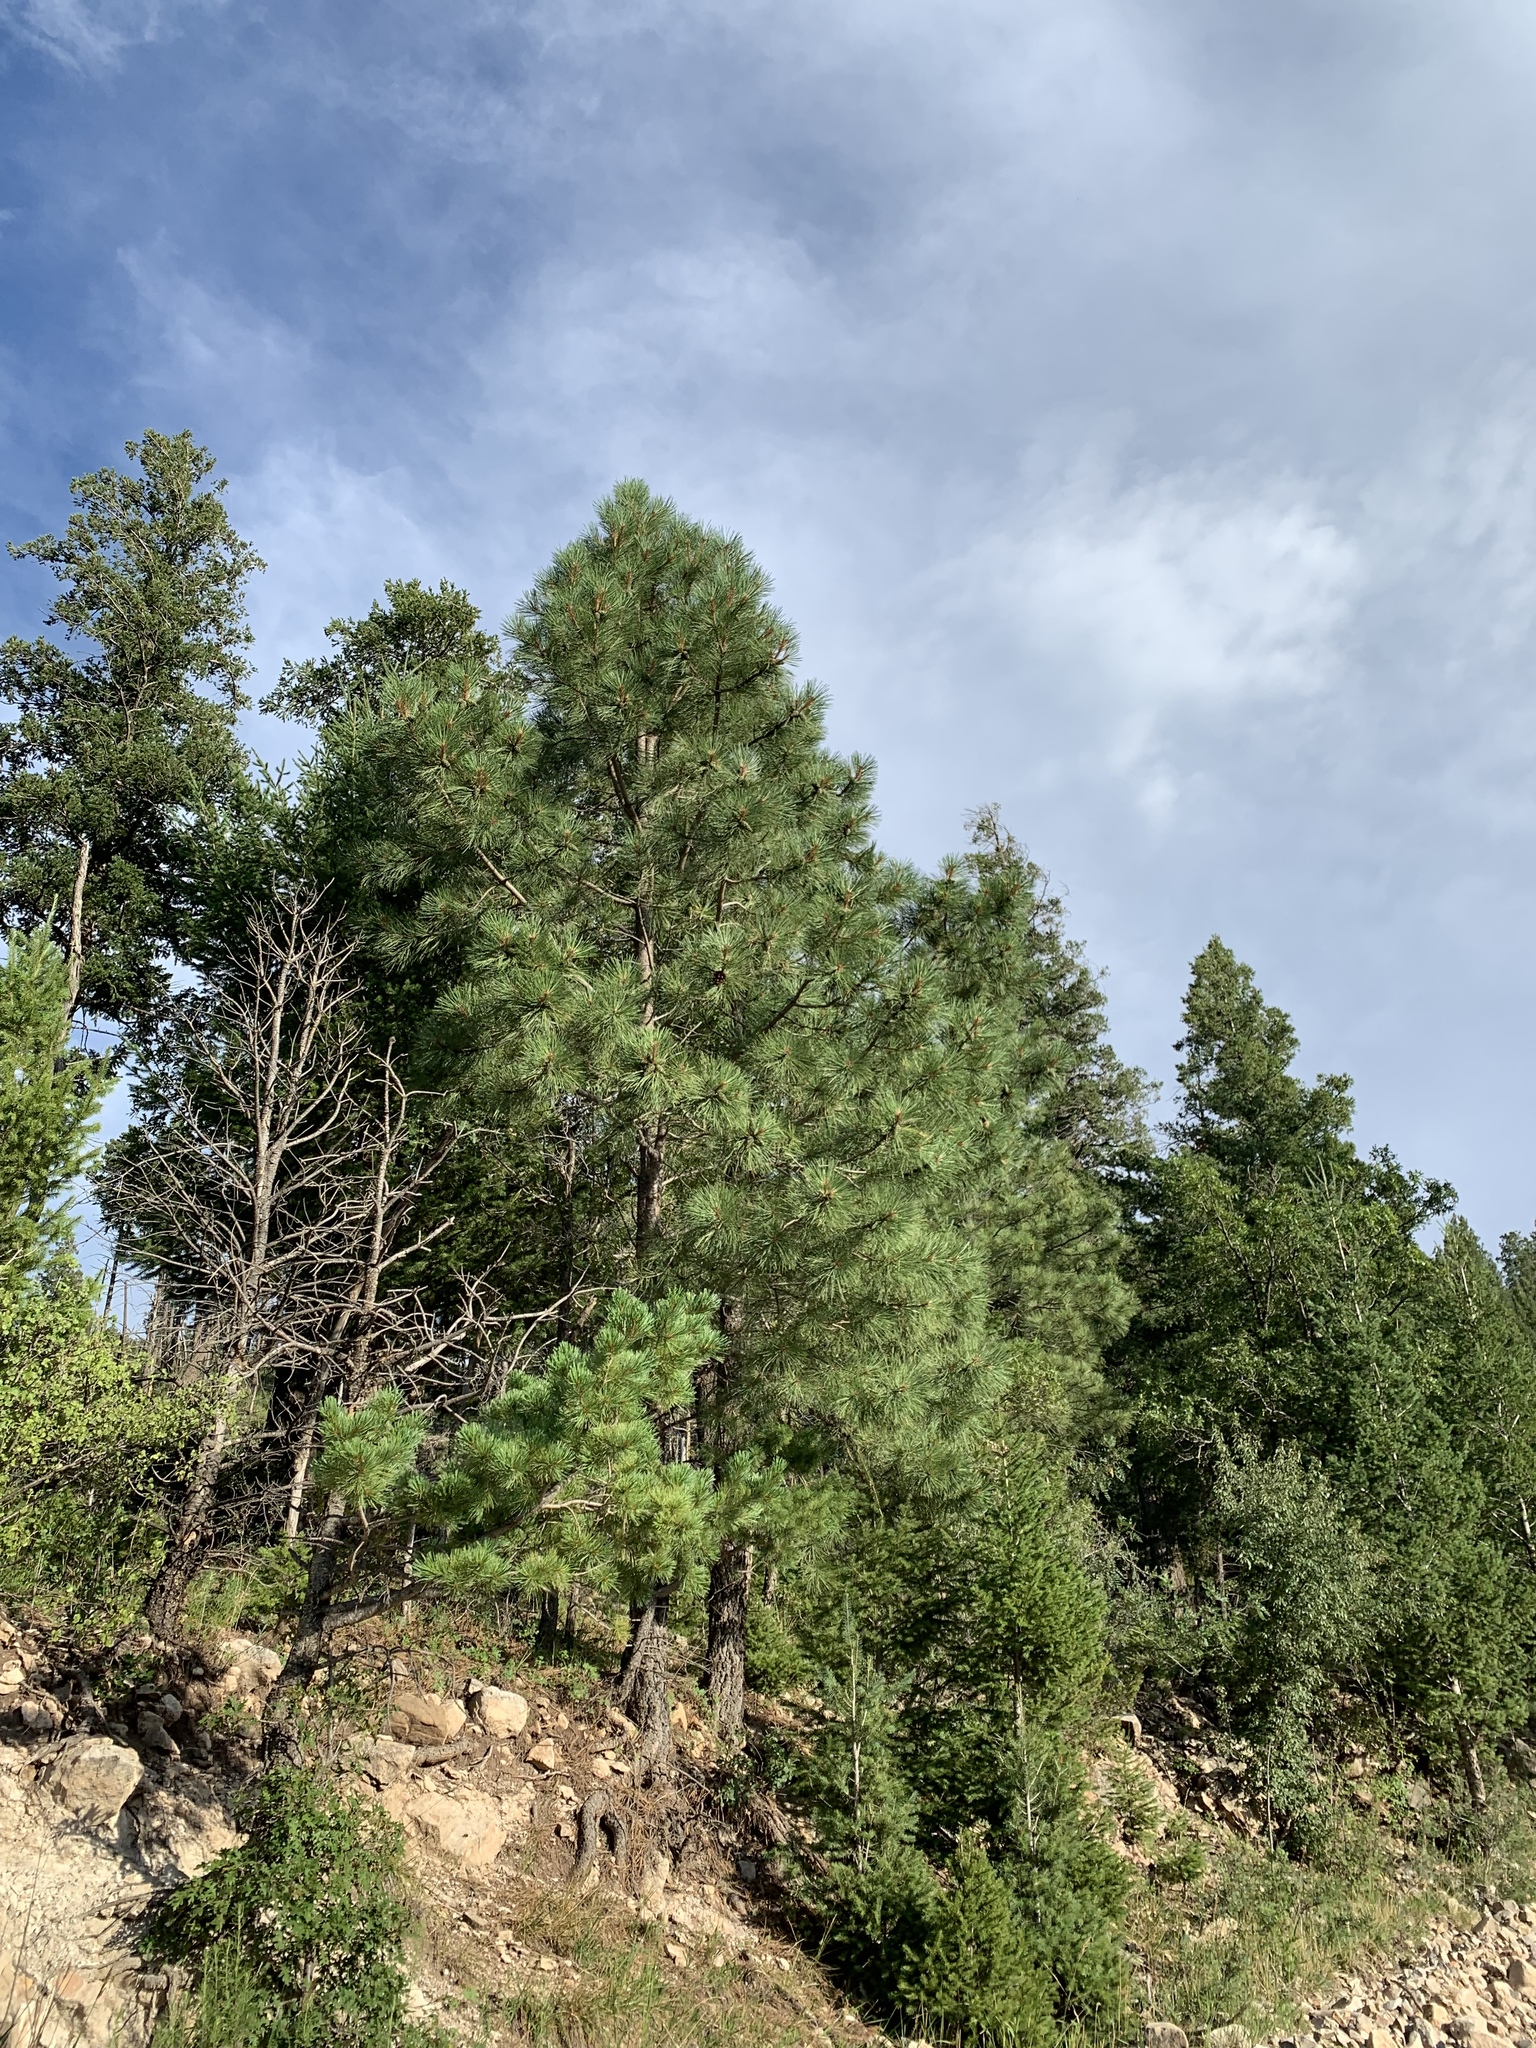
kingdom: Plantae
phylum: Tracheophyta
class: Pinopsida
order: Pinales
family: Pinaceae
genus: Pinus
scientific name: Pinus ponderosa
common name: Western yellow-pine
